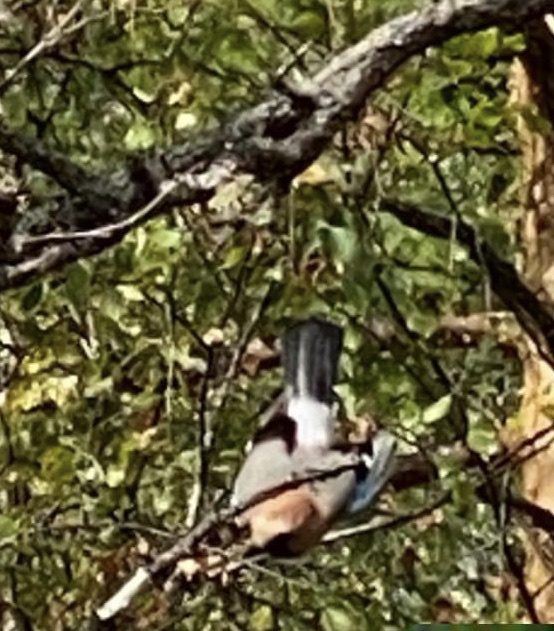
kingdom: Animalia
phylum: Chordata
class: Aves
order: Passeriformes
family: Corvidae
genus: Garrulus
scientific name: Garrulus glandarius
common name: Eurasian jay
